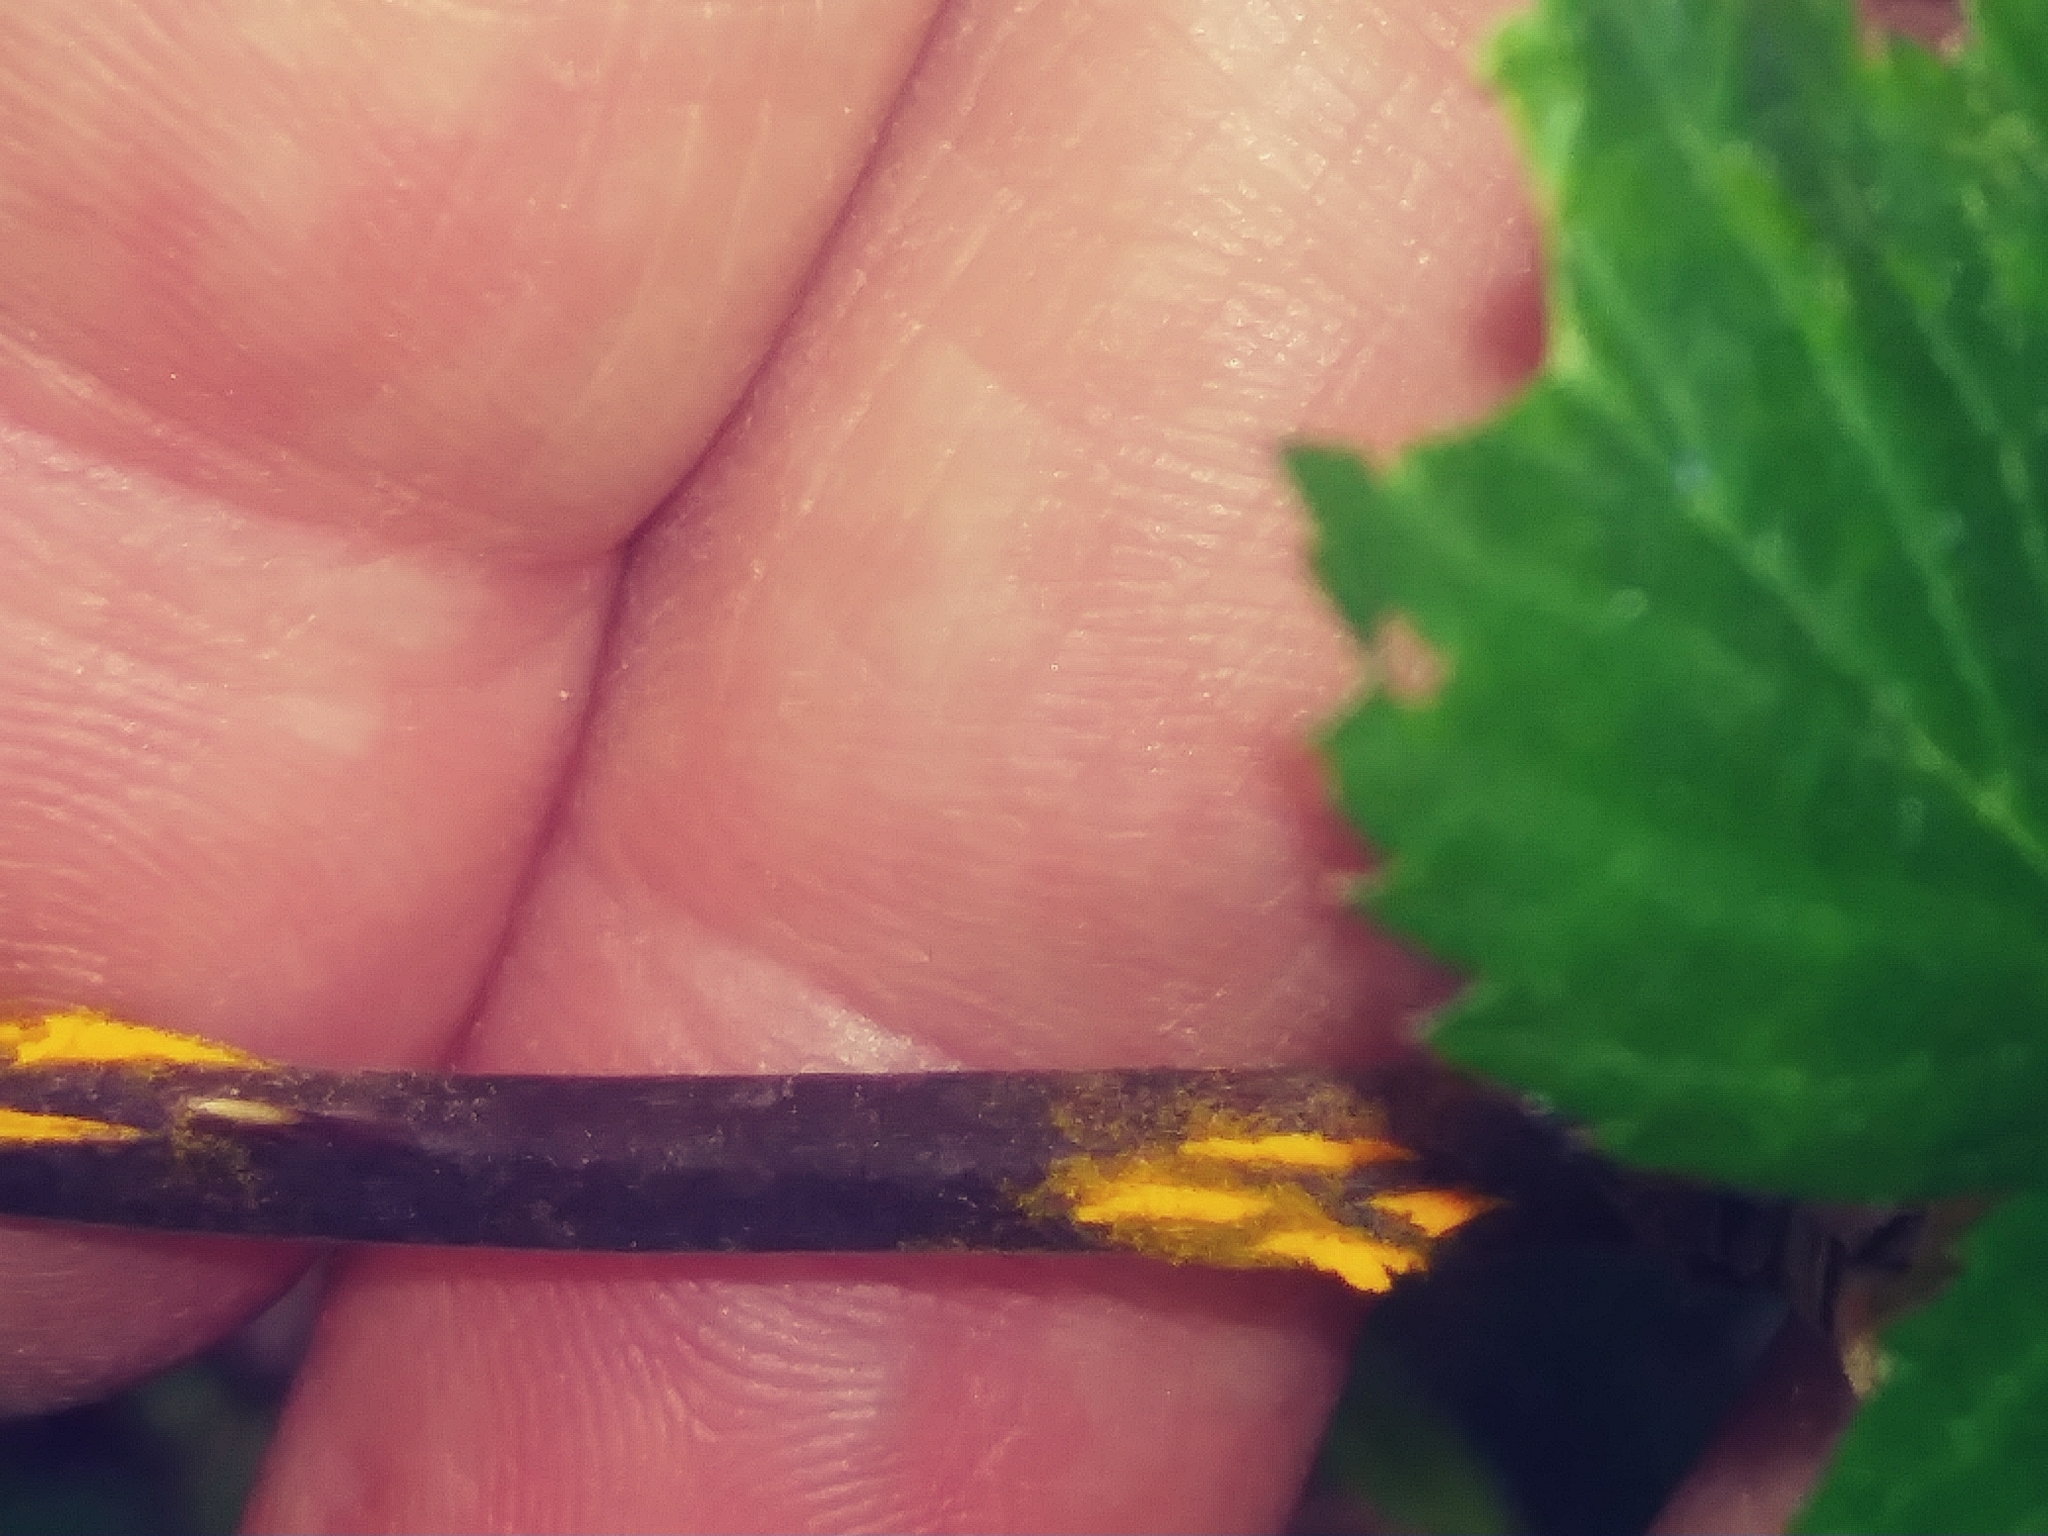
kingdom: Plantae
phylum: Tracheophyta
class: Magnoliopsida
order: Rosales
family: Rosaceae
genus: Rubus
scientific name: Rubus pensilvanicus
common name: Pennsylvania blackberry
